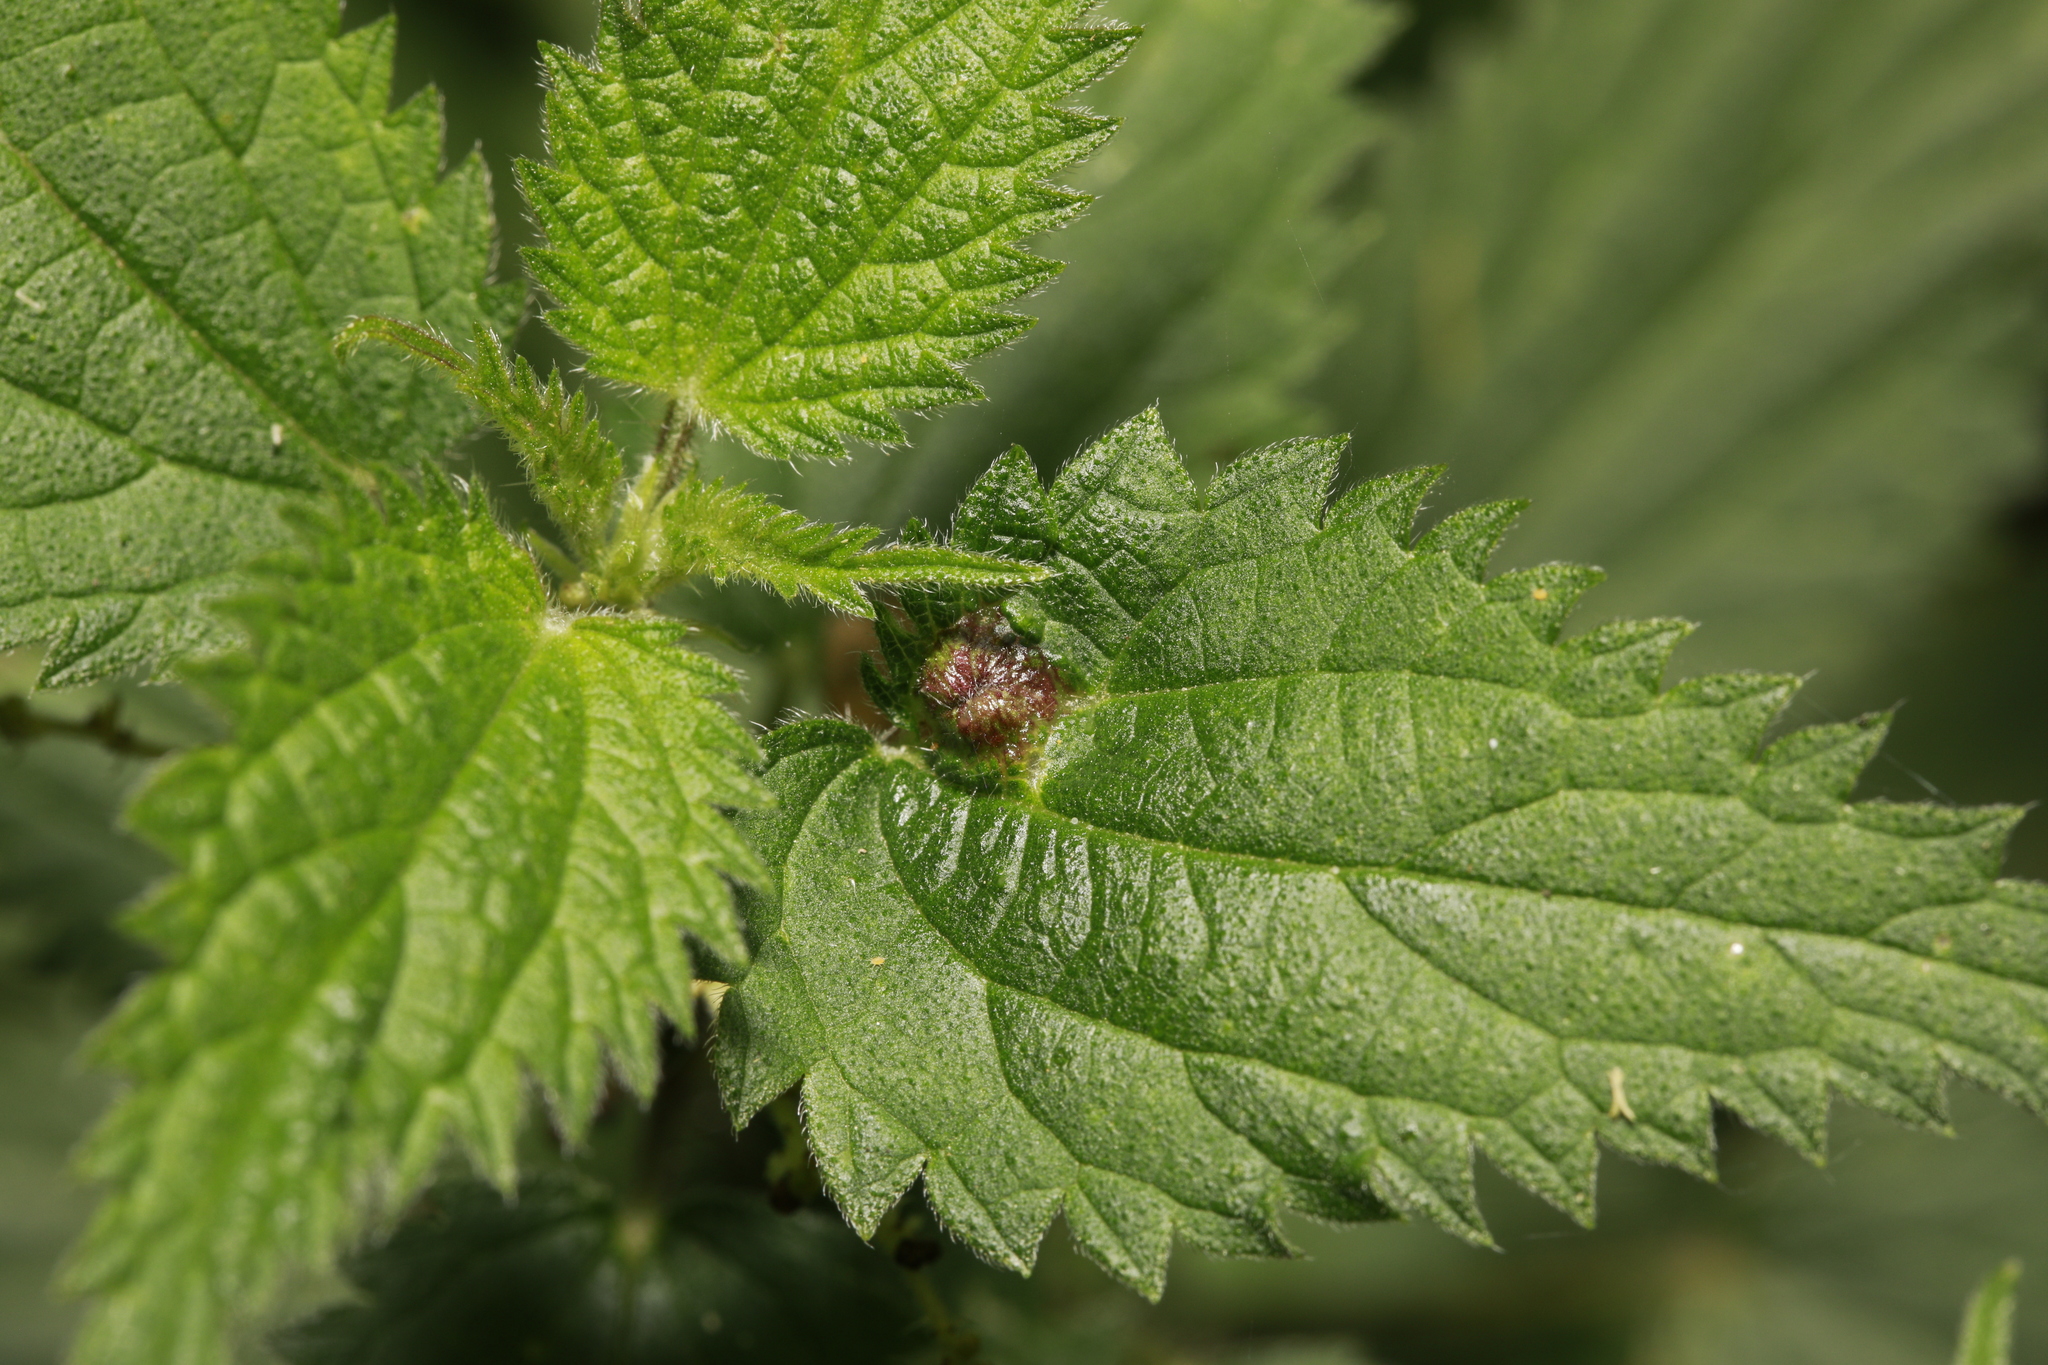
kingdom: Animalia
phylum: Arthropoda
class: Insecta
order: Diptera
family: Cecidomyiidae
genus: Dasineura
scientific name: Dasineura urticae
